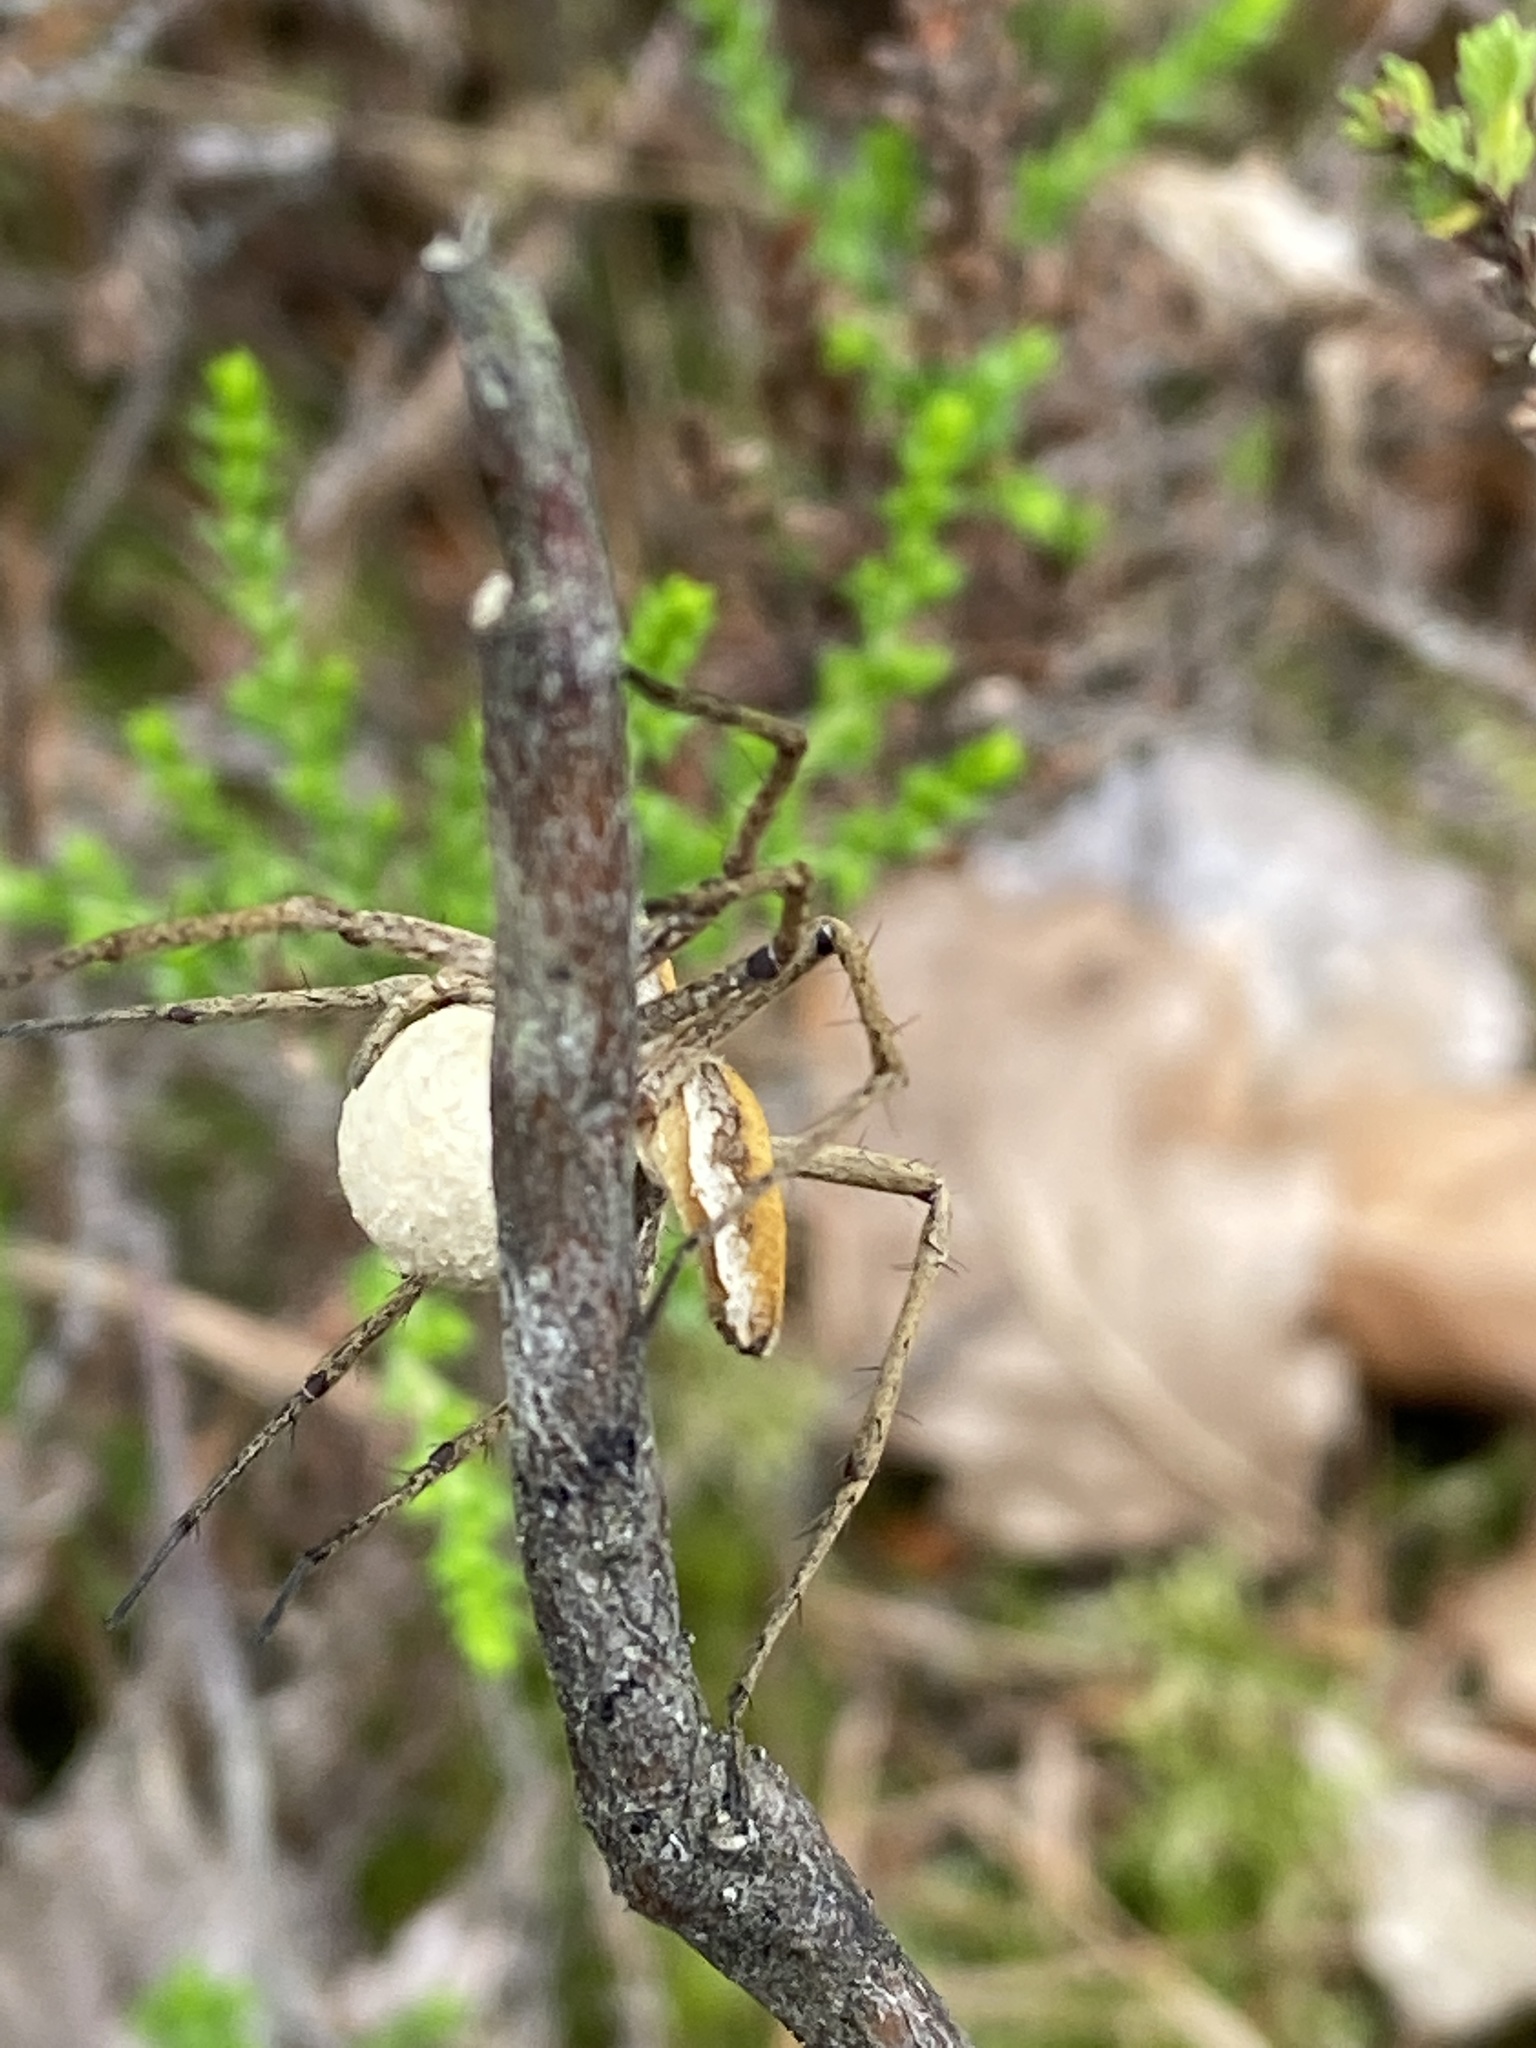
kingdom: Animalia
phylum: Arthropoda
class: Arachnida
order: Araneae
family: Pisauridae
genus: Pisaura
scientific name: Pisaura mirabilis
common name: Tent spider
